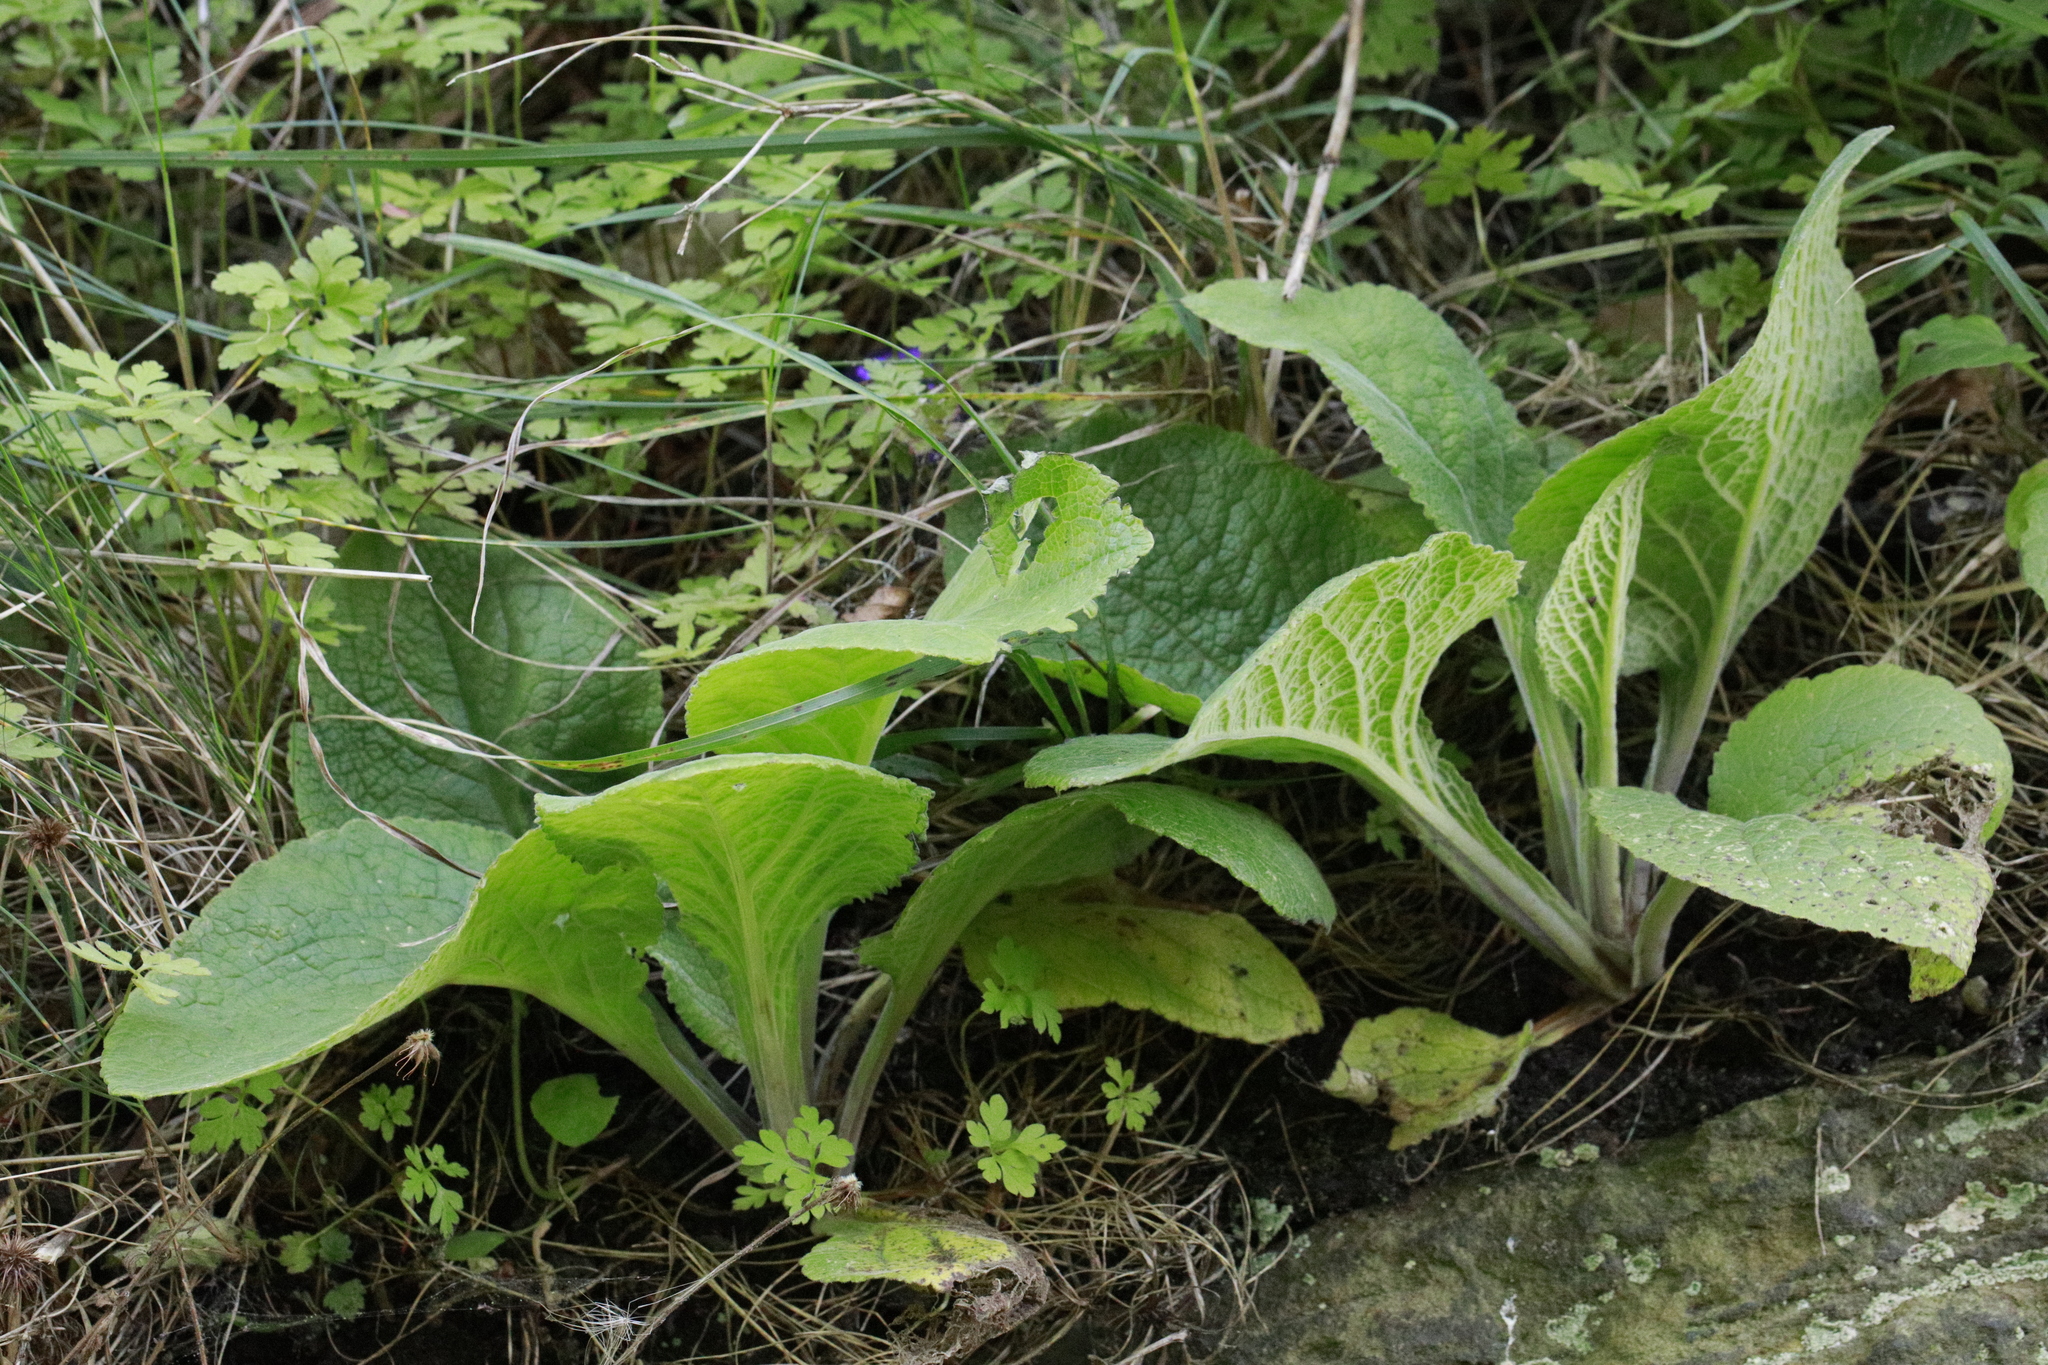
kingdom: Plantae
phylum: Tracheophyta
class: Magnoliopsida
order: Lamiales
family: Plantaginaceae
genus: Digitalis
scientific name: Digitalis purpurea
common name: Foxglove
